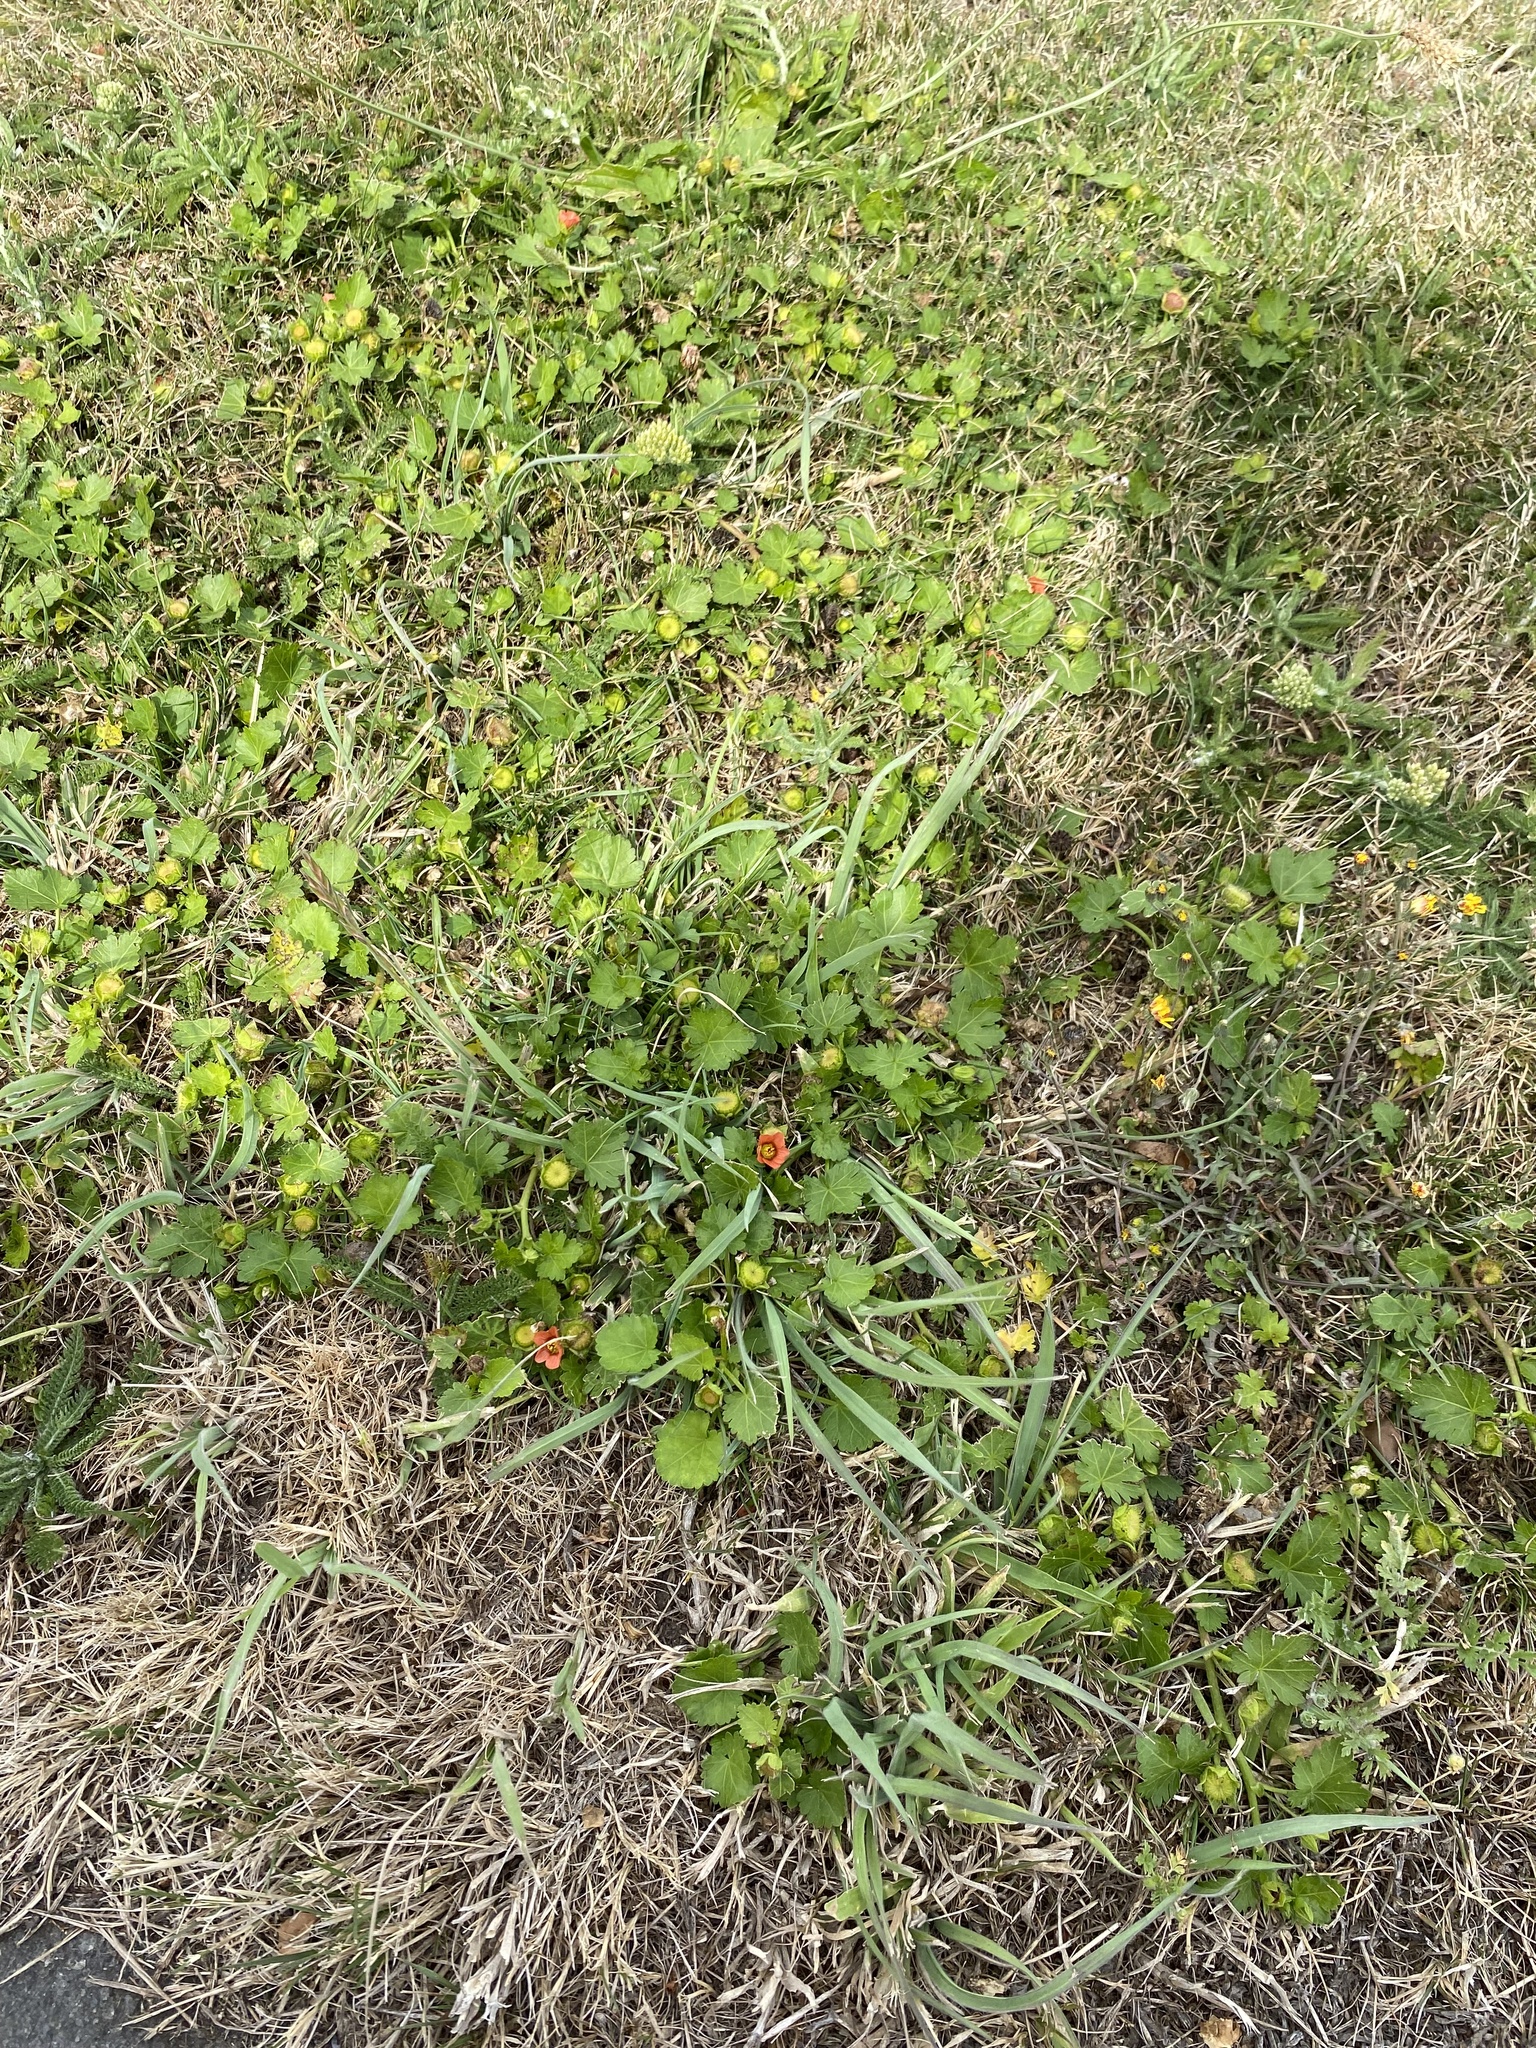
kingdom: Plantae
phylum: Tracheophyta
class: Magnoliopsida
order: Malvales
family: Malvaceae
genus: Modiola
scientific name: Modiola caroliniana
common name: Carolina bristlemallow
